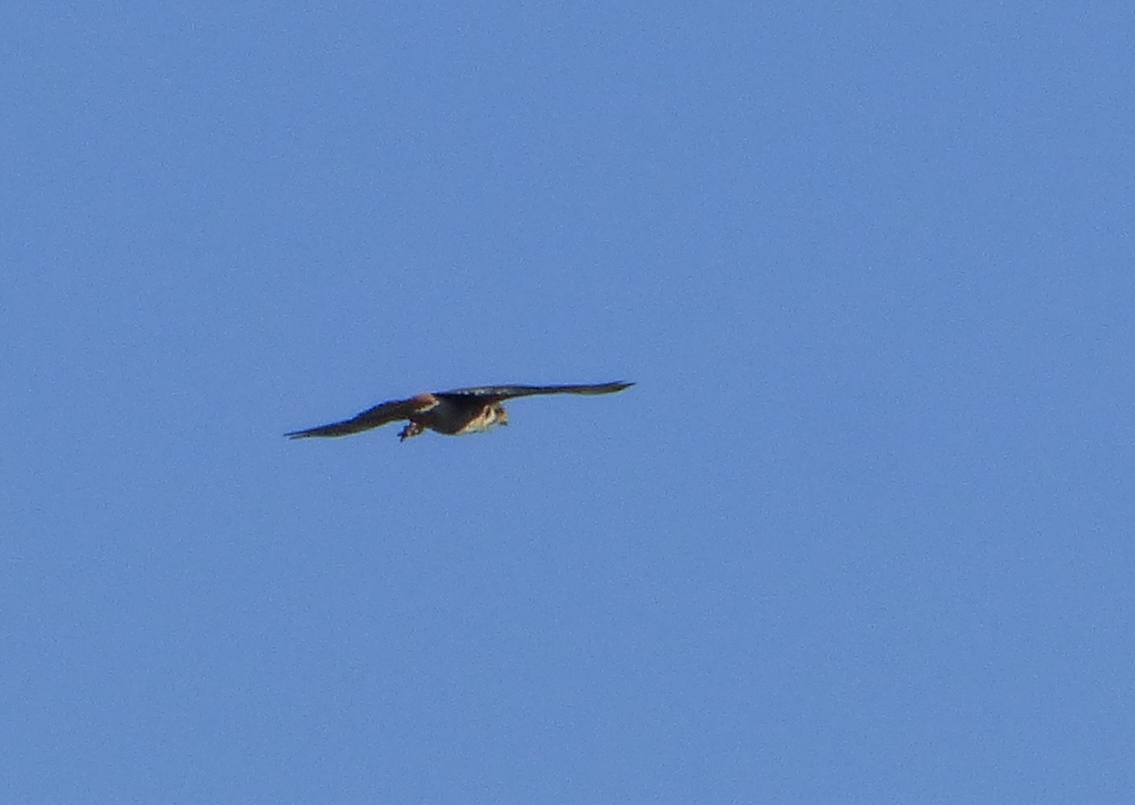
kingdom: Animalia
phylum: Chordata
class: Aves
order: Falconiformes
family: Falconidae
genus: Falco
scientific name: Falco sparverius
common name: American kestrel
